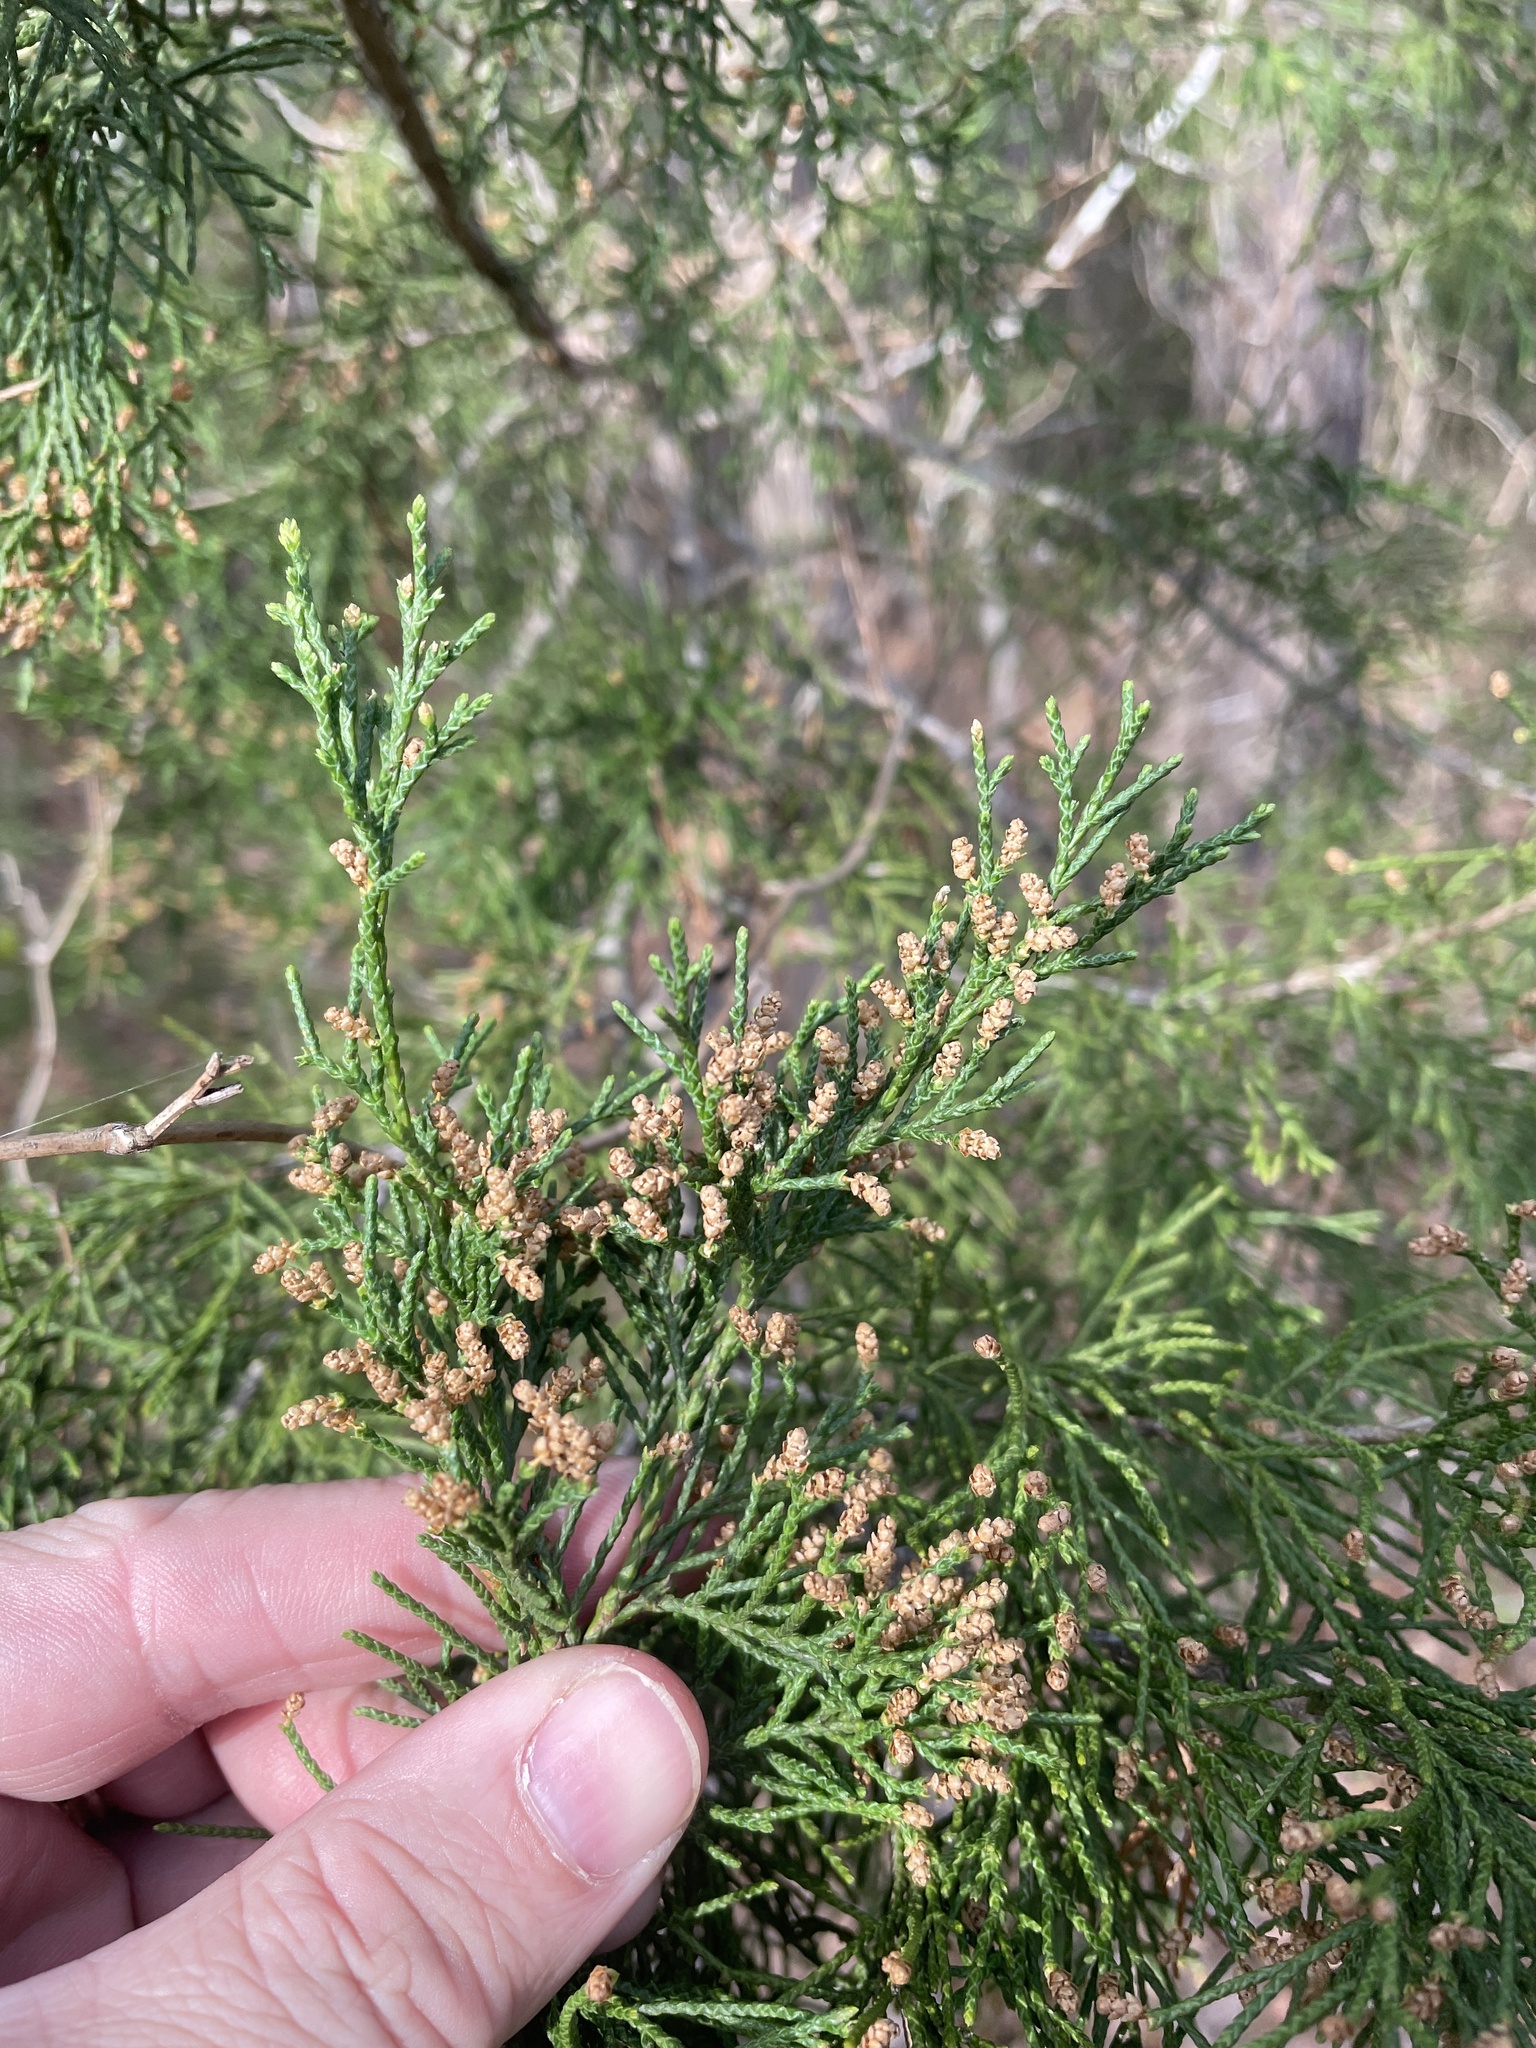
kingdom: Plantae
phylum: Tracheophyta
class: Pinopsida
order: Pinales
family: Cupressaceae
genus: Juniperus
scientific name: Juniperus virginiana
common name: Red juniper
